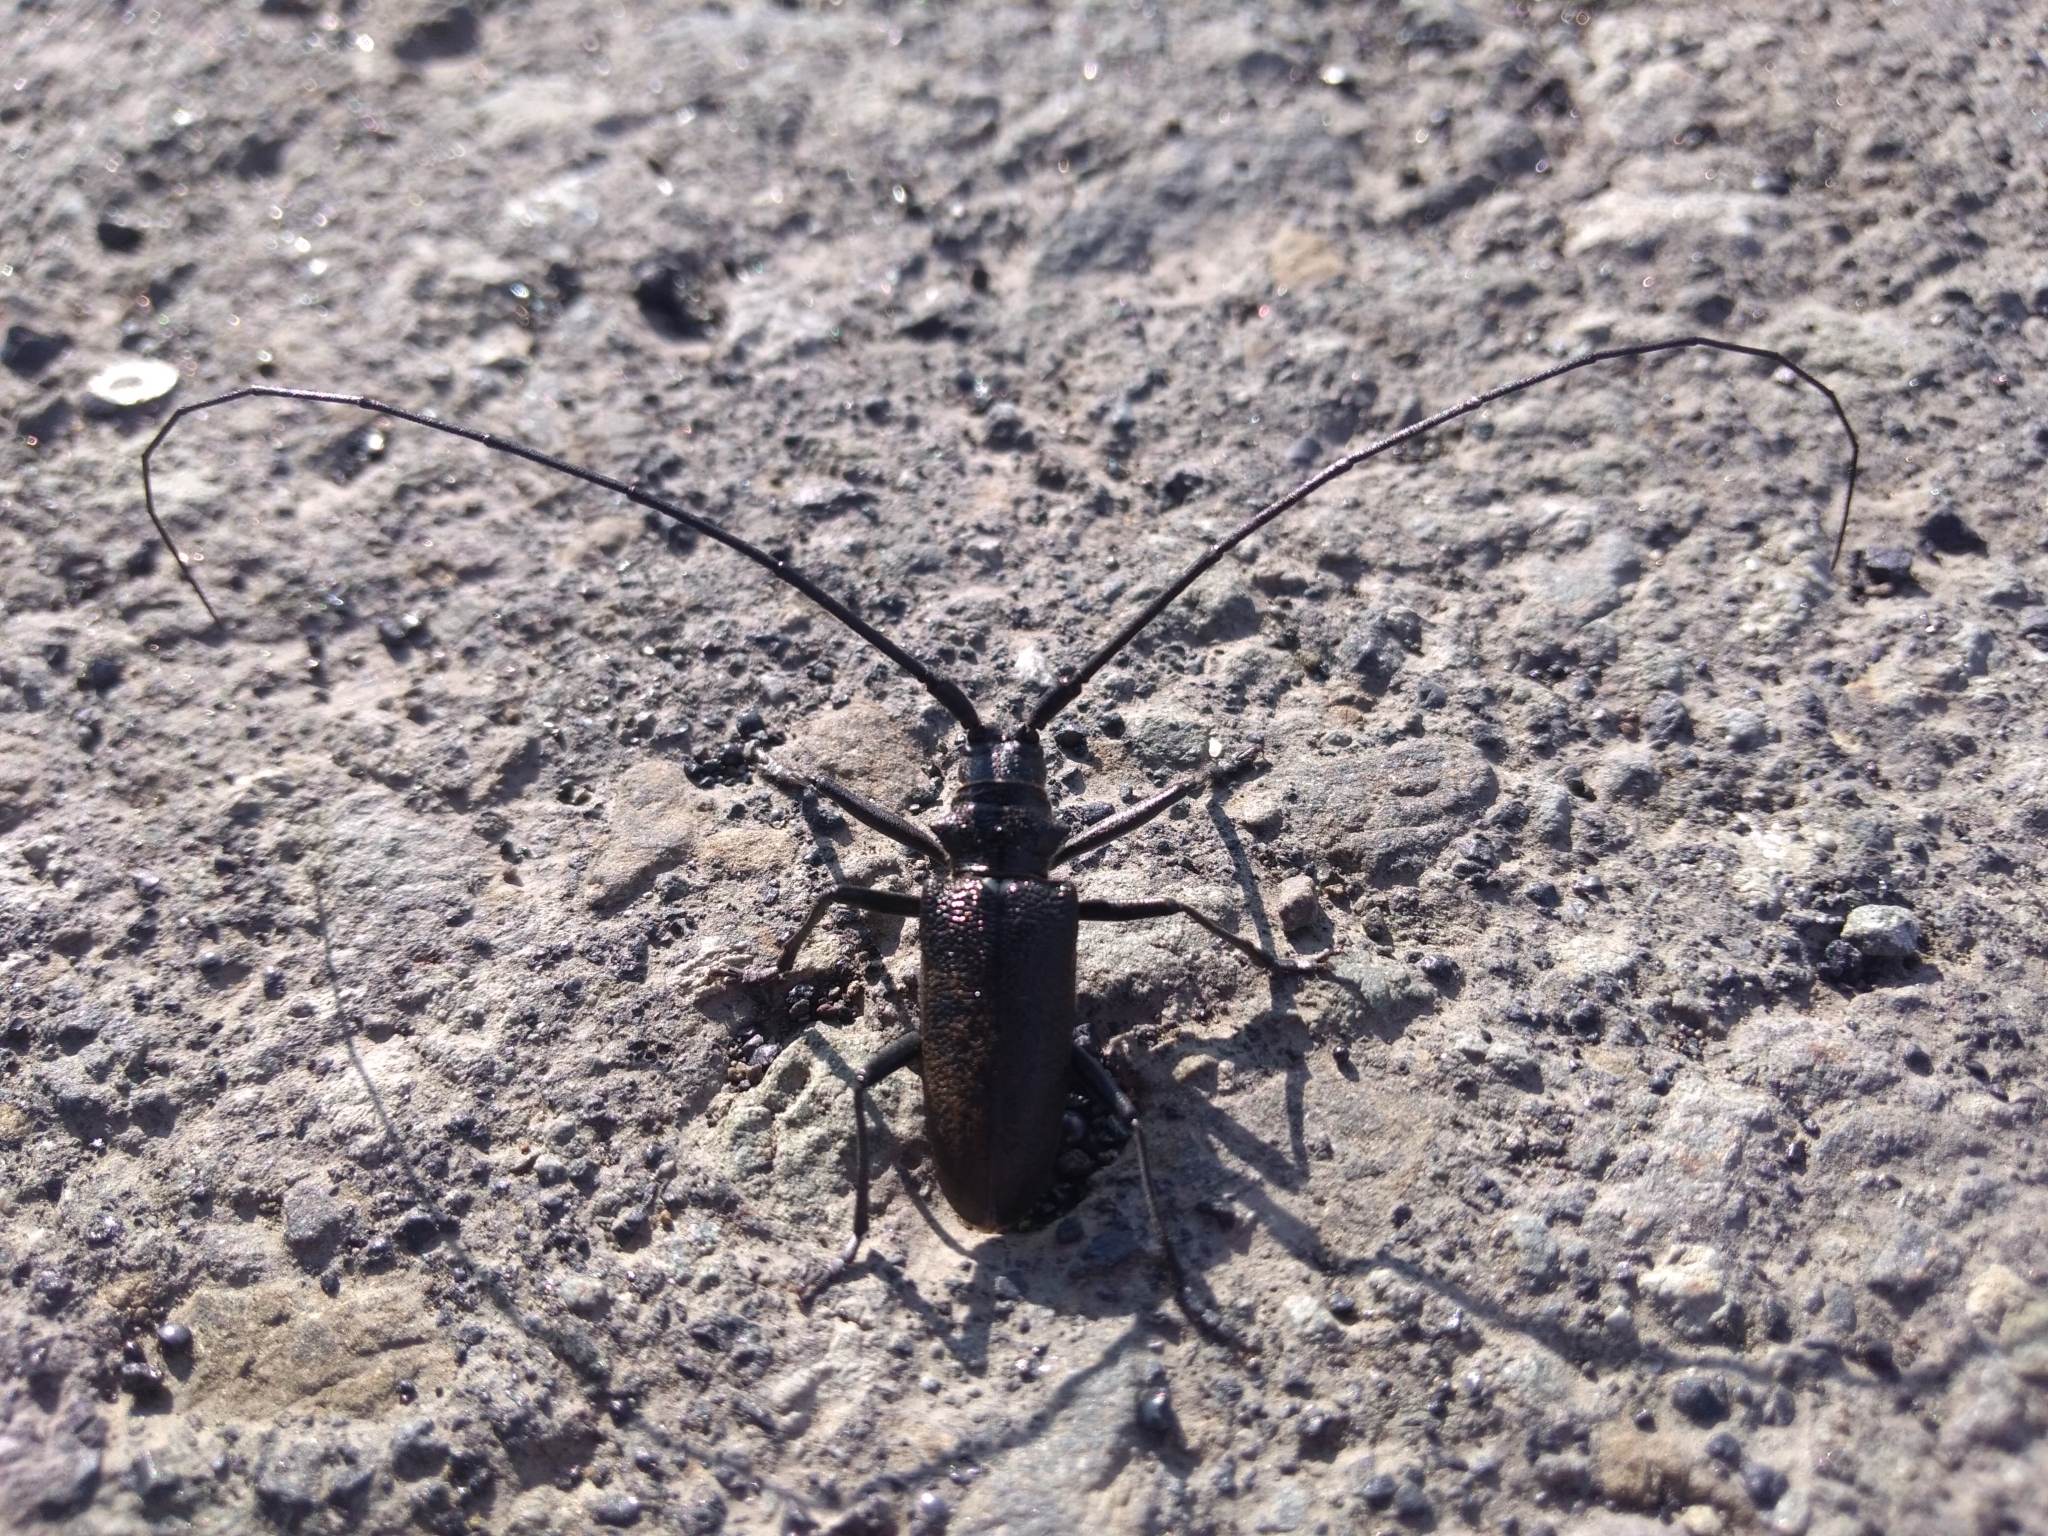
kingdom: Animalia
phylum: Arthropoda
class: Insecta
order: Coleoptera
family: Cerambycidae
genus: Monochamus
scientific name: Monochamus sutor
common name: Pine sawyer
